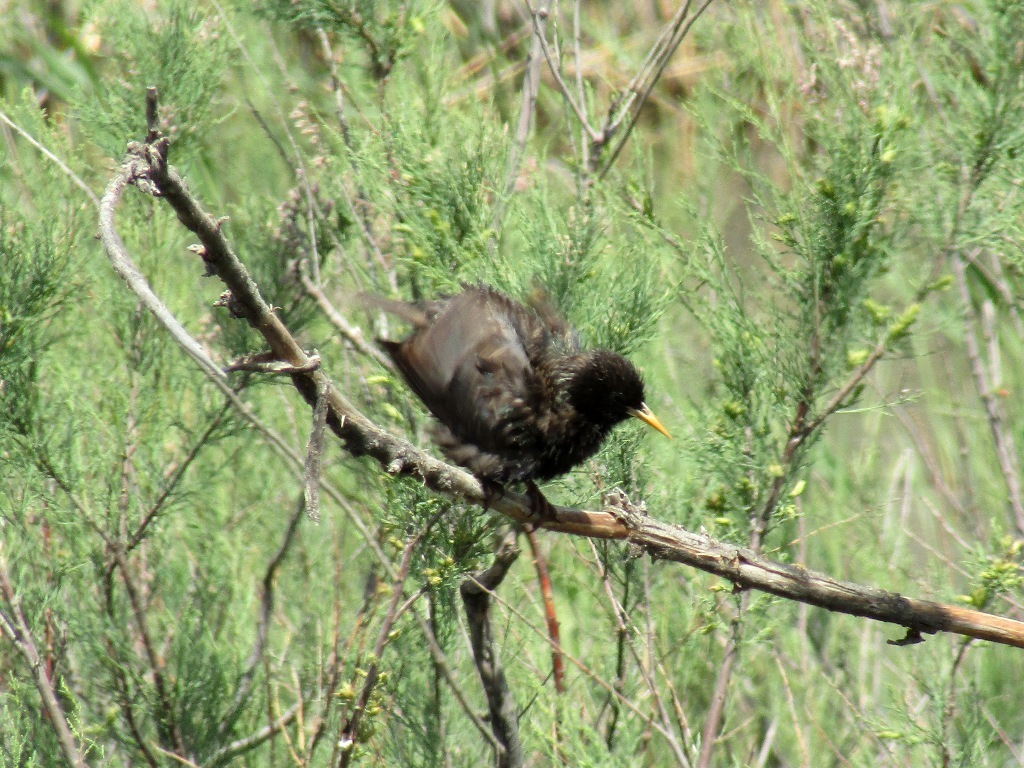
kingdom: Animalia
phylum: Chordata
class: Aves
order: Passeriformes
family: Sturnidae
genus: Sturnus
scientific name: Sturnus vulgaris
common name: Common starling
